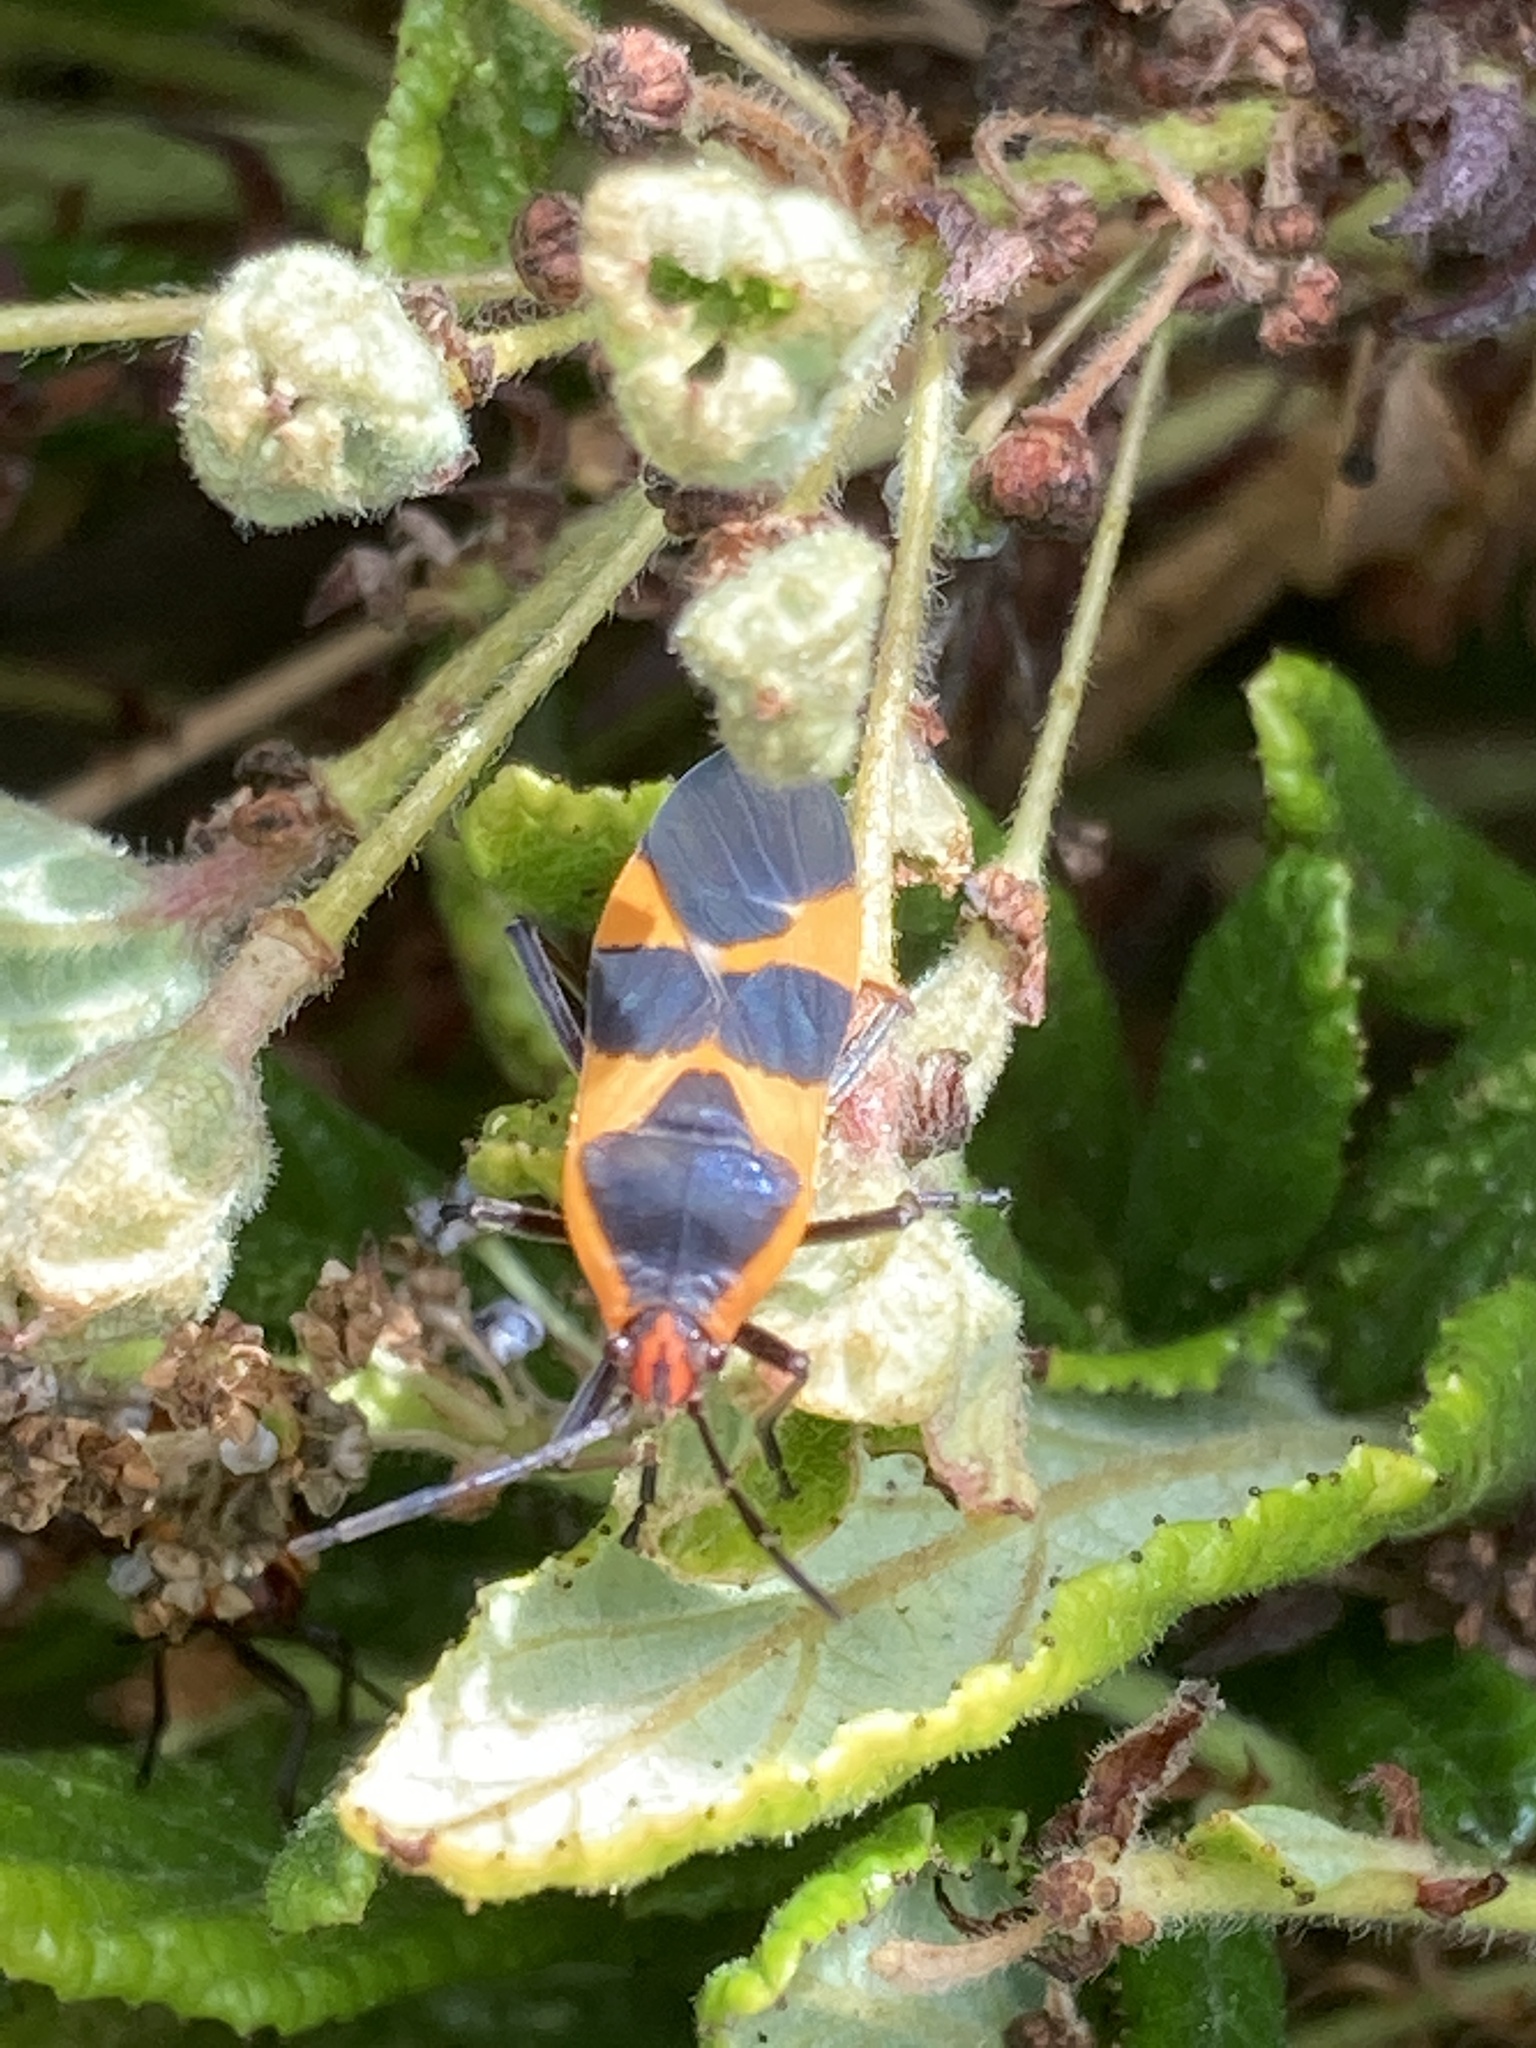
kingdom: Animalia
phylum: Arthropoda
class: Insecta
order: Hemiptera
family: Lygaeidae
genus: Oncopeltus
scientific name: Oncopeltus fasciatus
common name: Large milkweed bug
